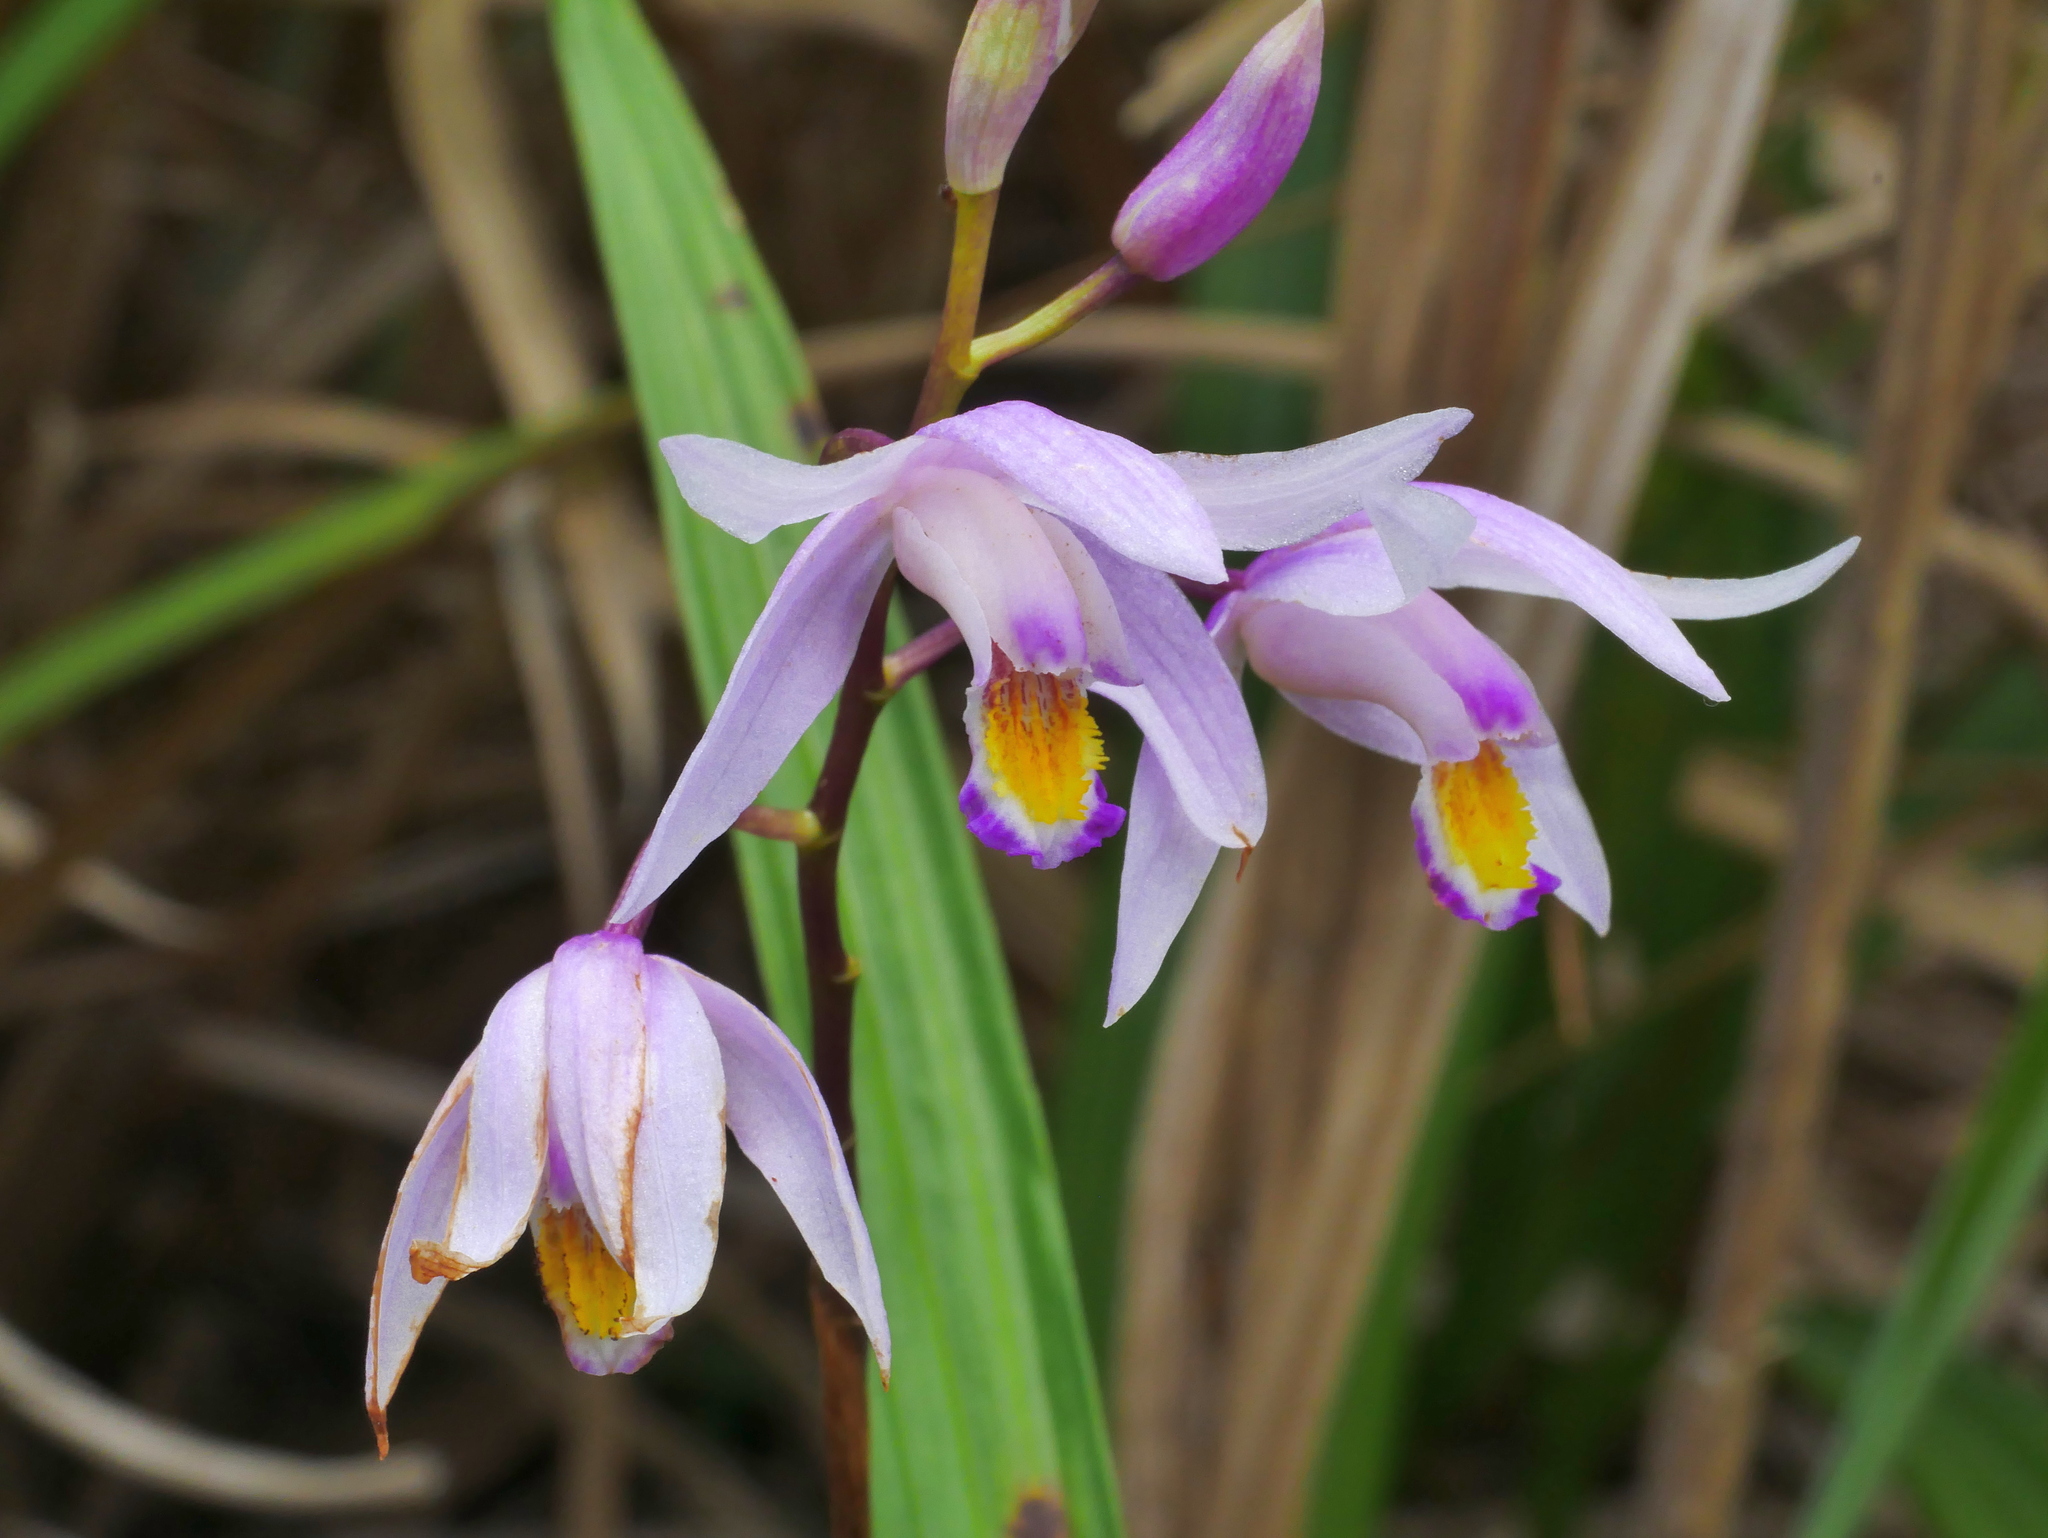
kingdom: Plantae
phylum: Tracheophyta
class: Liliopsida
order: Asparagales
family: Orchidaceae
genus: Bletilla
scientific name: Bletilla formosana
